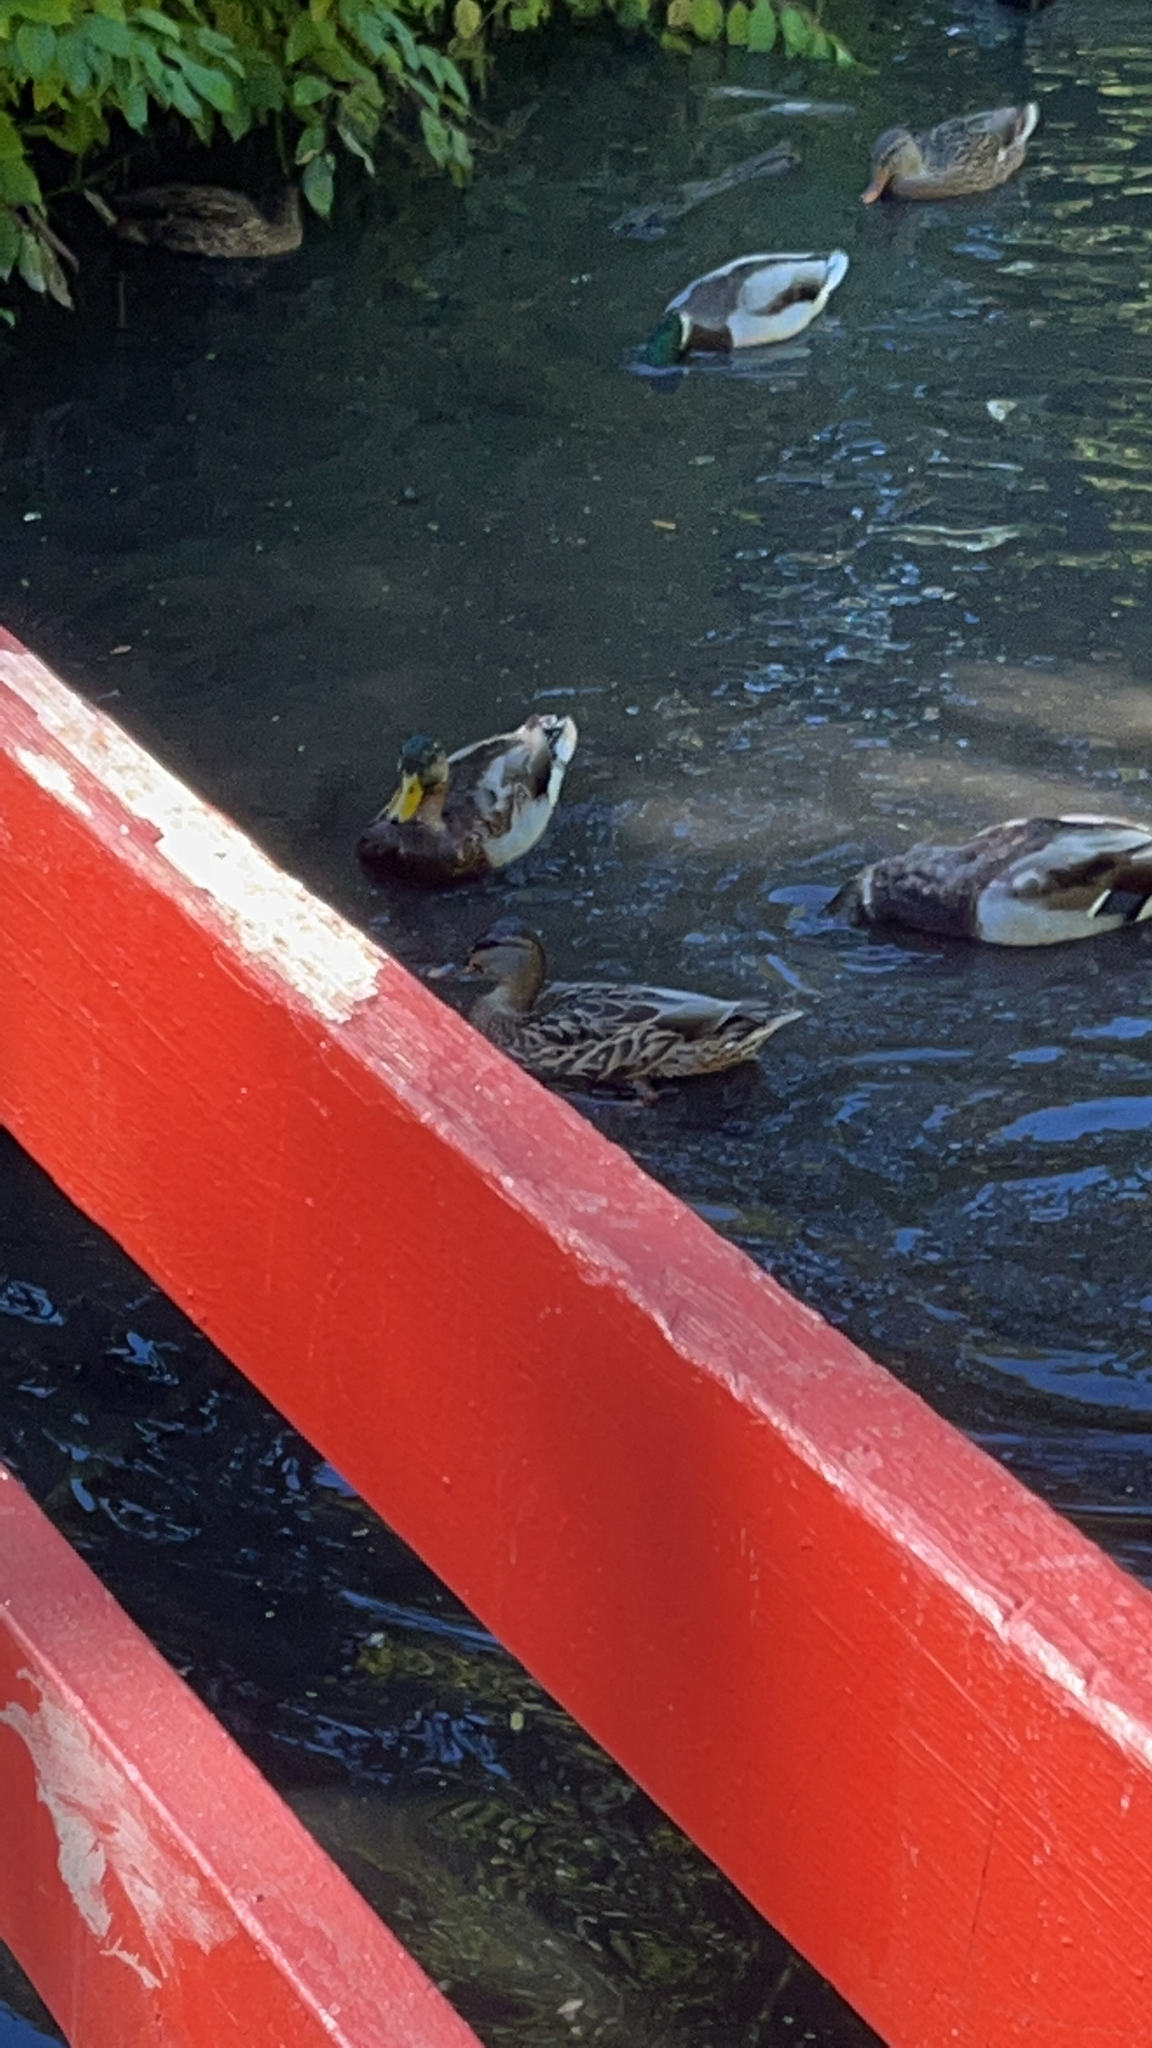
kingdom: Animalia
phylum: Chordata
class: Aves
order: Anseriformes
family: Anatidae
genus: Anas
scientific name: Anas platyrhynchos
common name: Mallard
